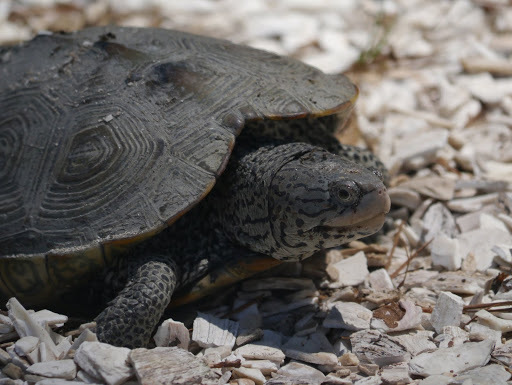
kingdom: Animalia
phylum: Chordata
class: Testudines
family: Emydidae
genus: Malaclemys
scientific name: Malaclemys terrapin
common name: Diamondback terrapin
